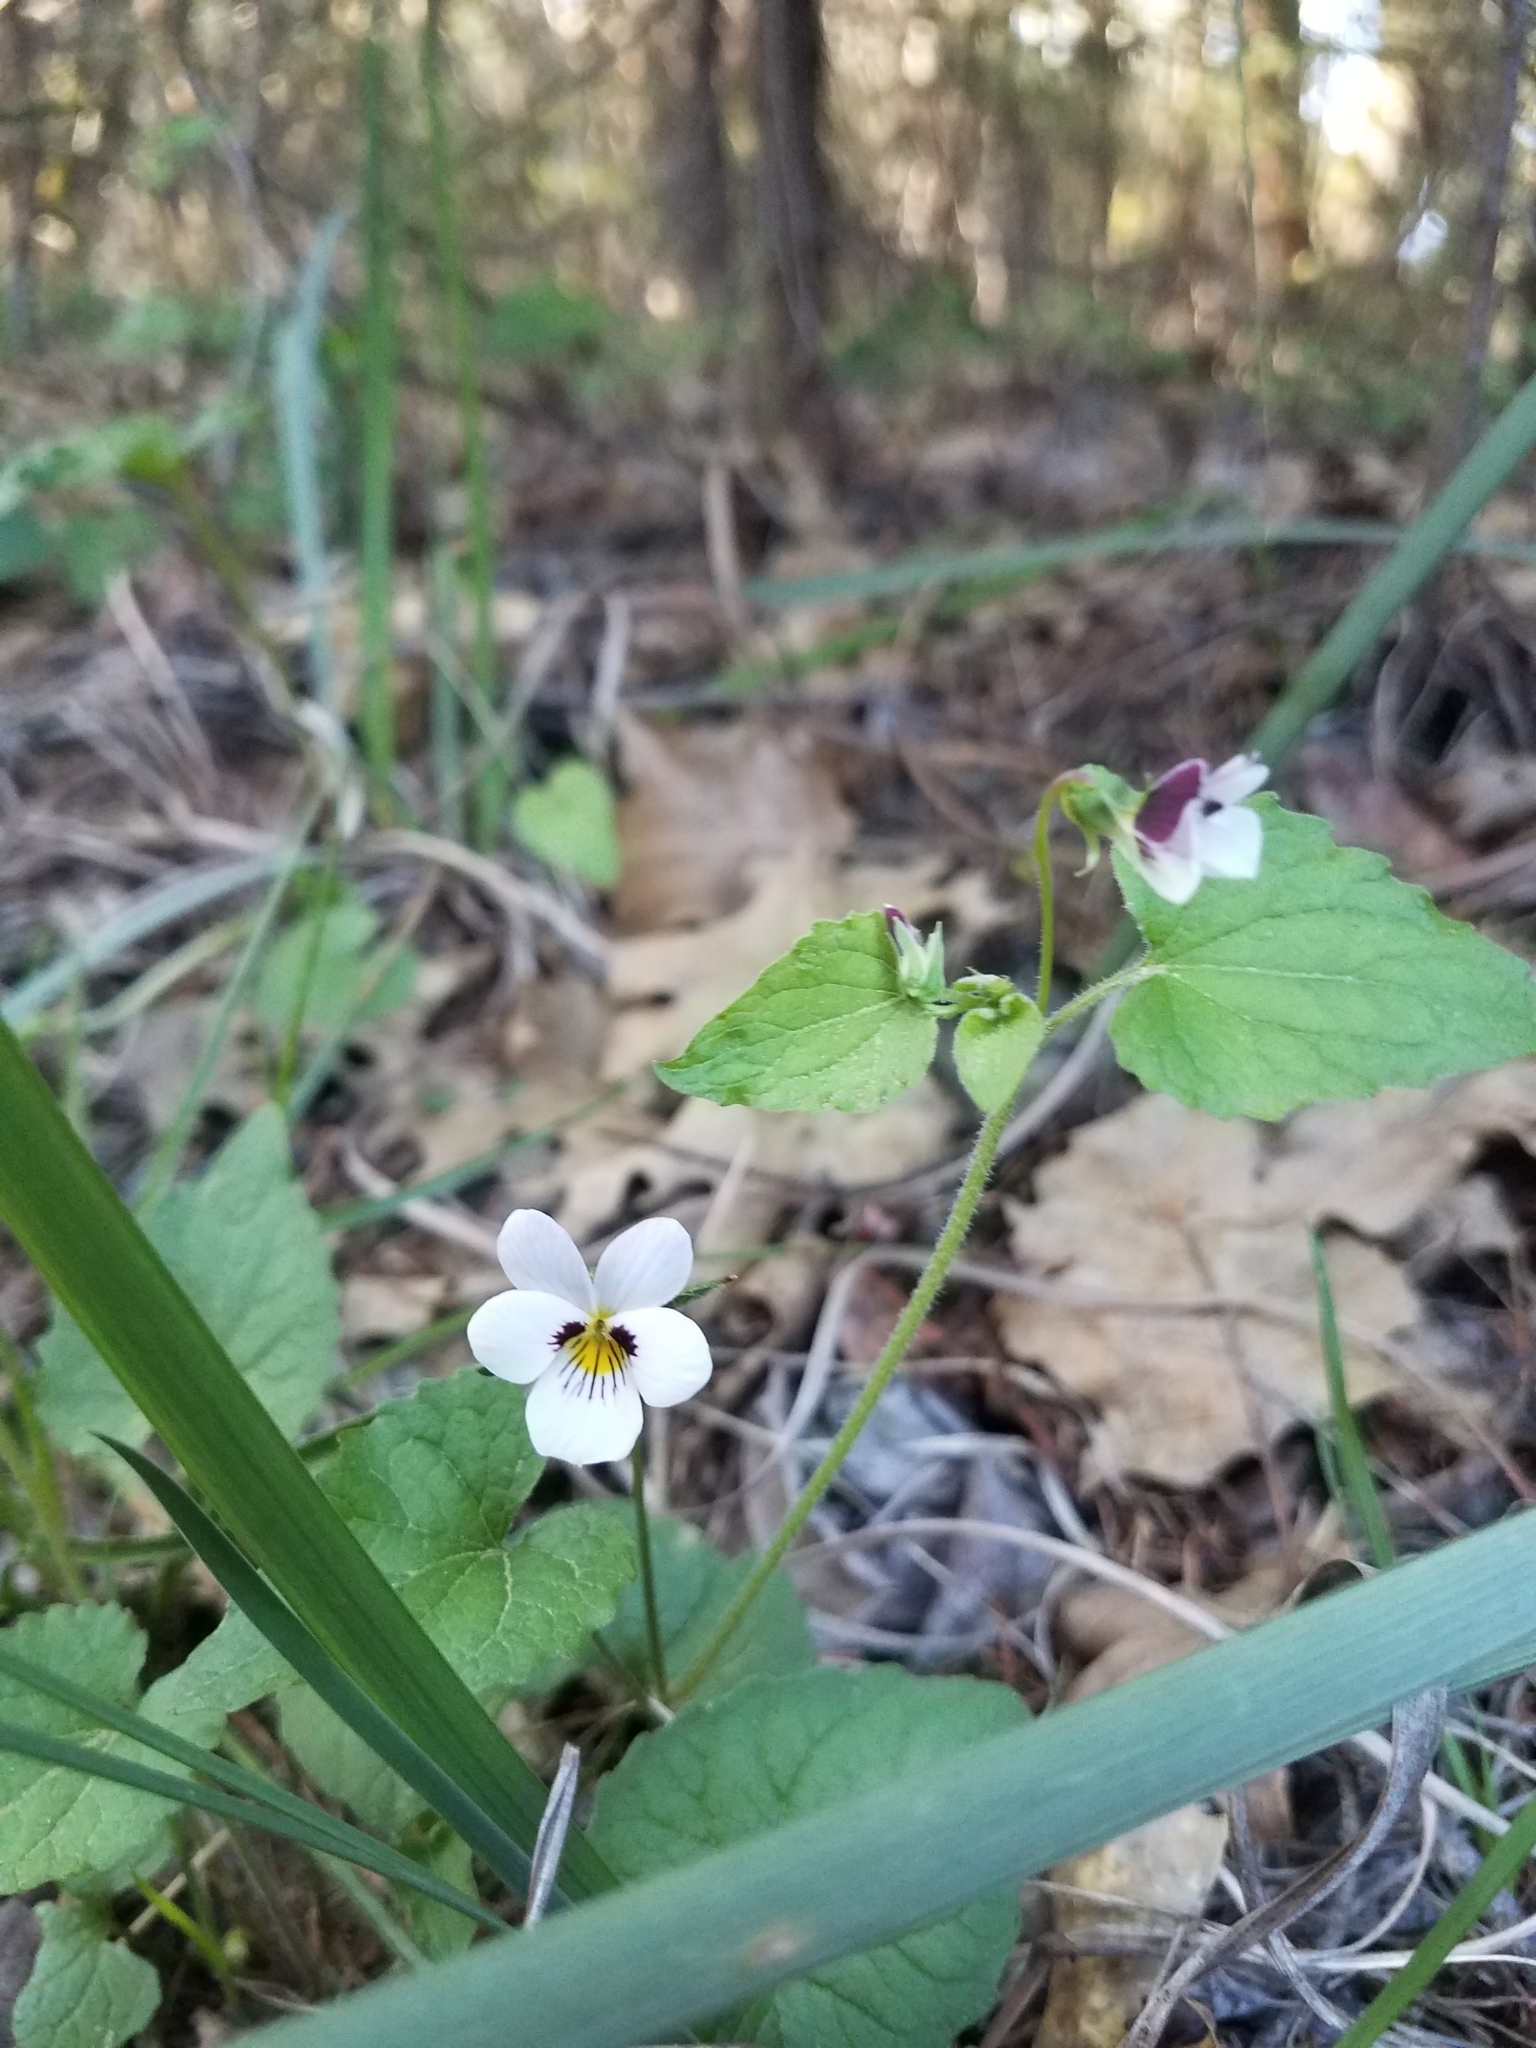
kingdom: Plantae
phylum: Tracheophyta
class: Magnoliopsida
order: Malpighiales
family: Violaceae
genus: Viola
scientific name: Viola ocellata
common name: Western heart's ease
